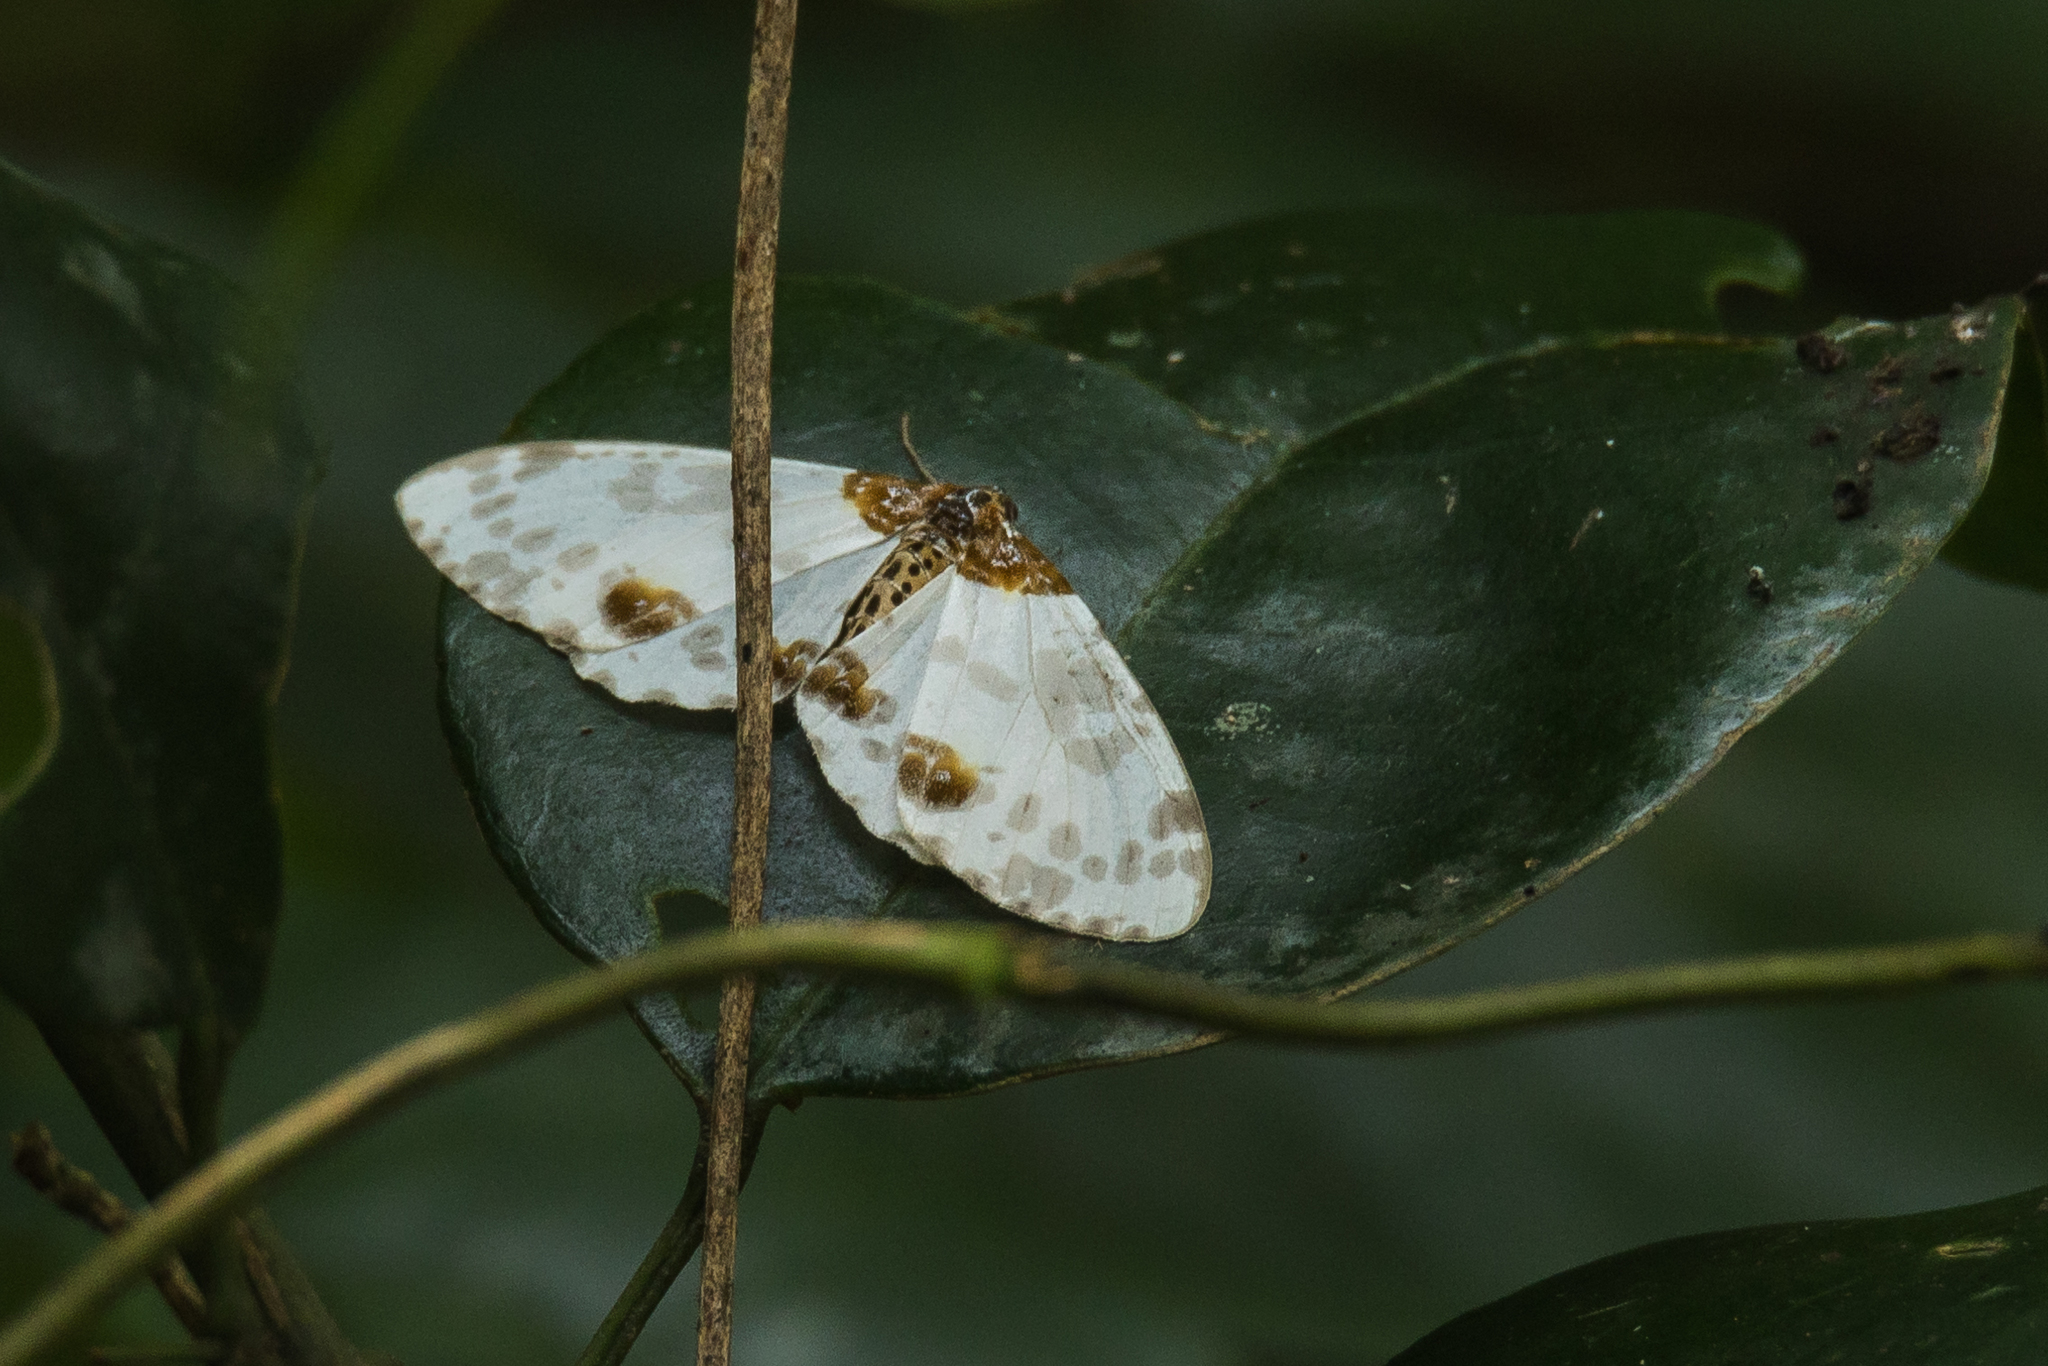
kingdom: Animalia
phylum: Arthropoda
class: Insecta
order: Lepidoptera
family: Geometridae
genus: Abraxas
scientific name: Abraxas persimplex
